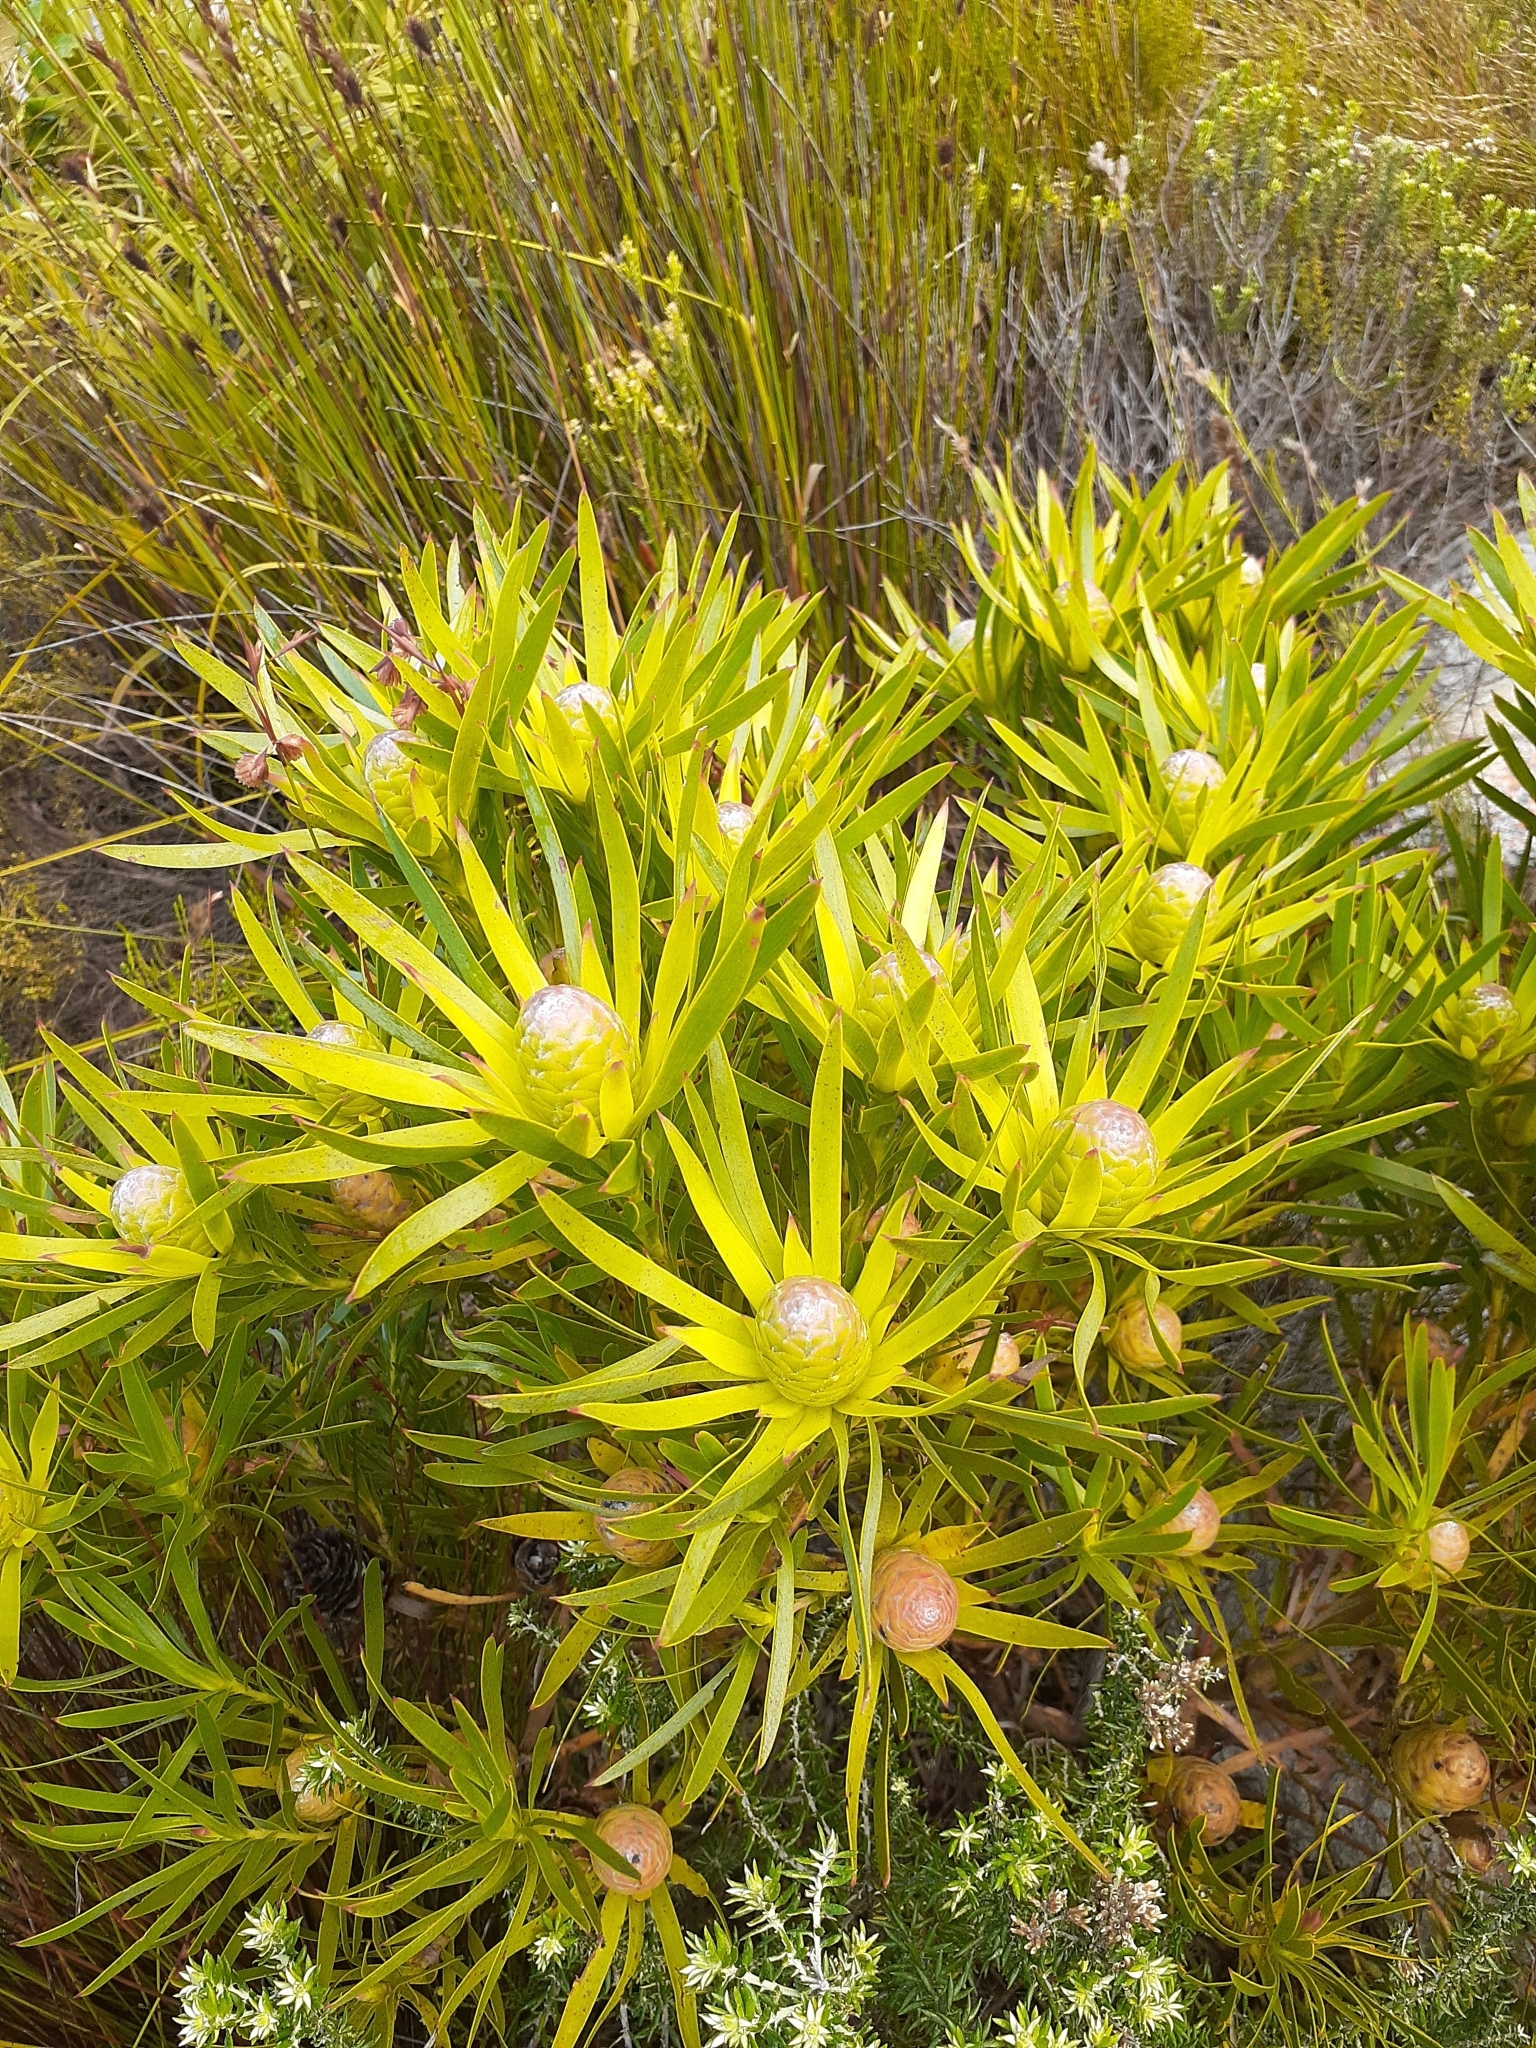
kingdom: Plantae
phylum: Tracheophyta
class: Magnoliopsida
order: Proteales
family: Proteaceae
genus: Leucadendron
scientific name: Leucadendron xanthoconus
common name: Sickle-leaf conebush
